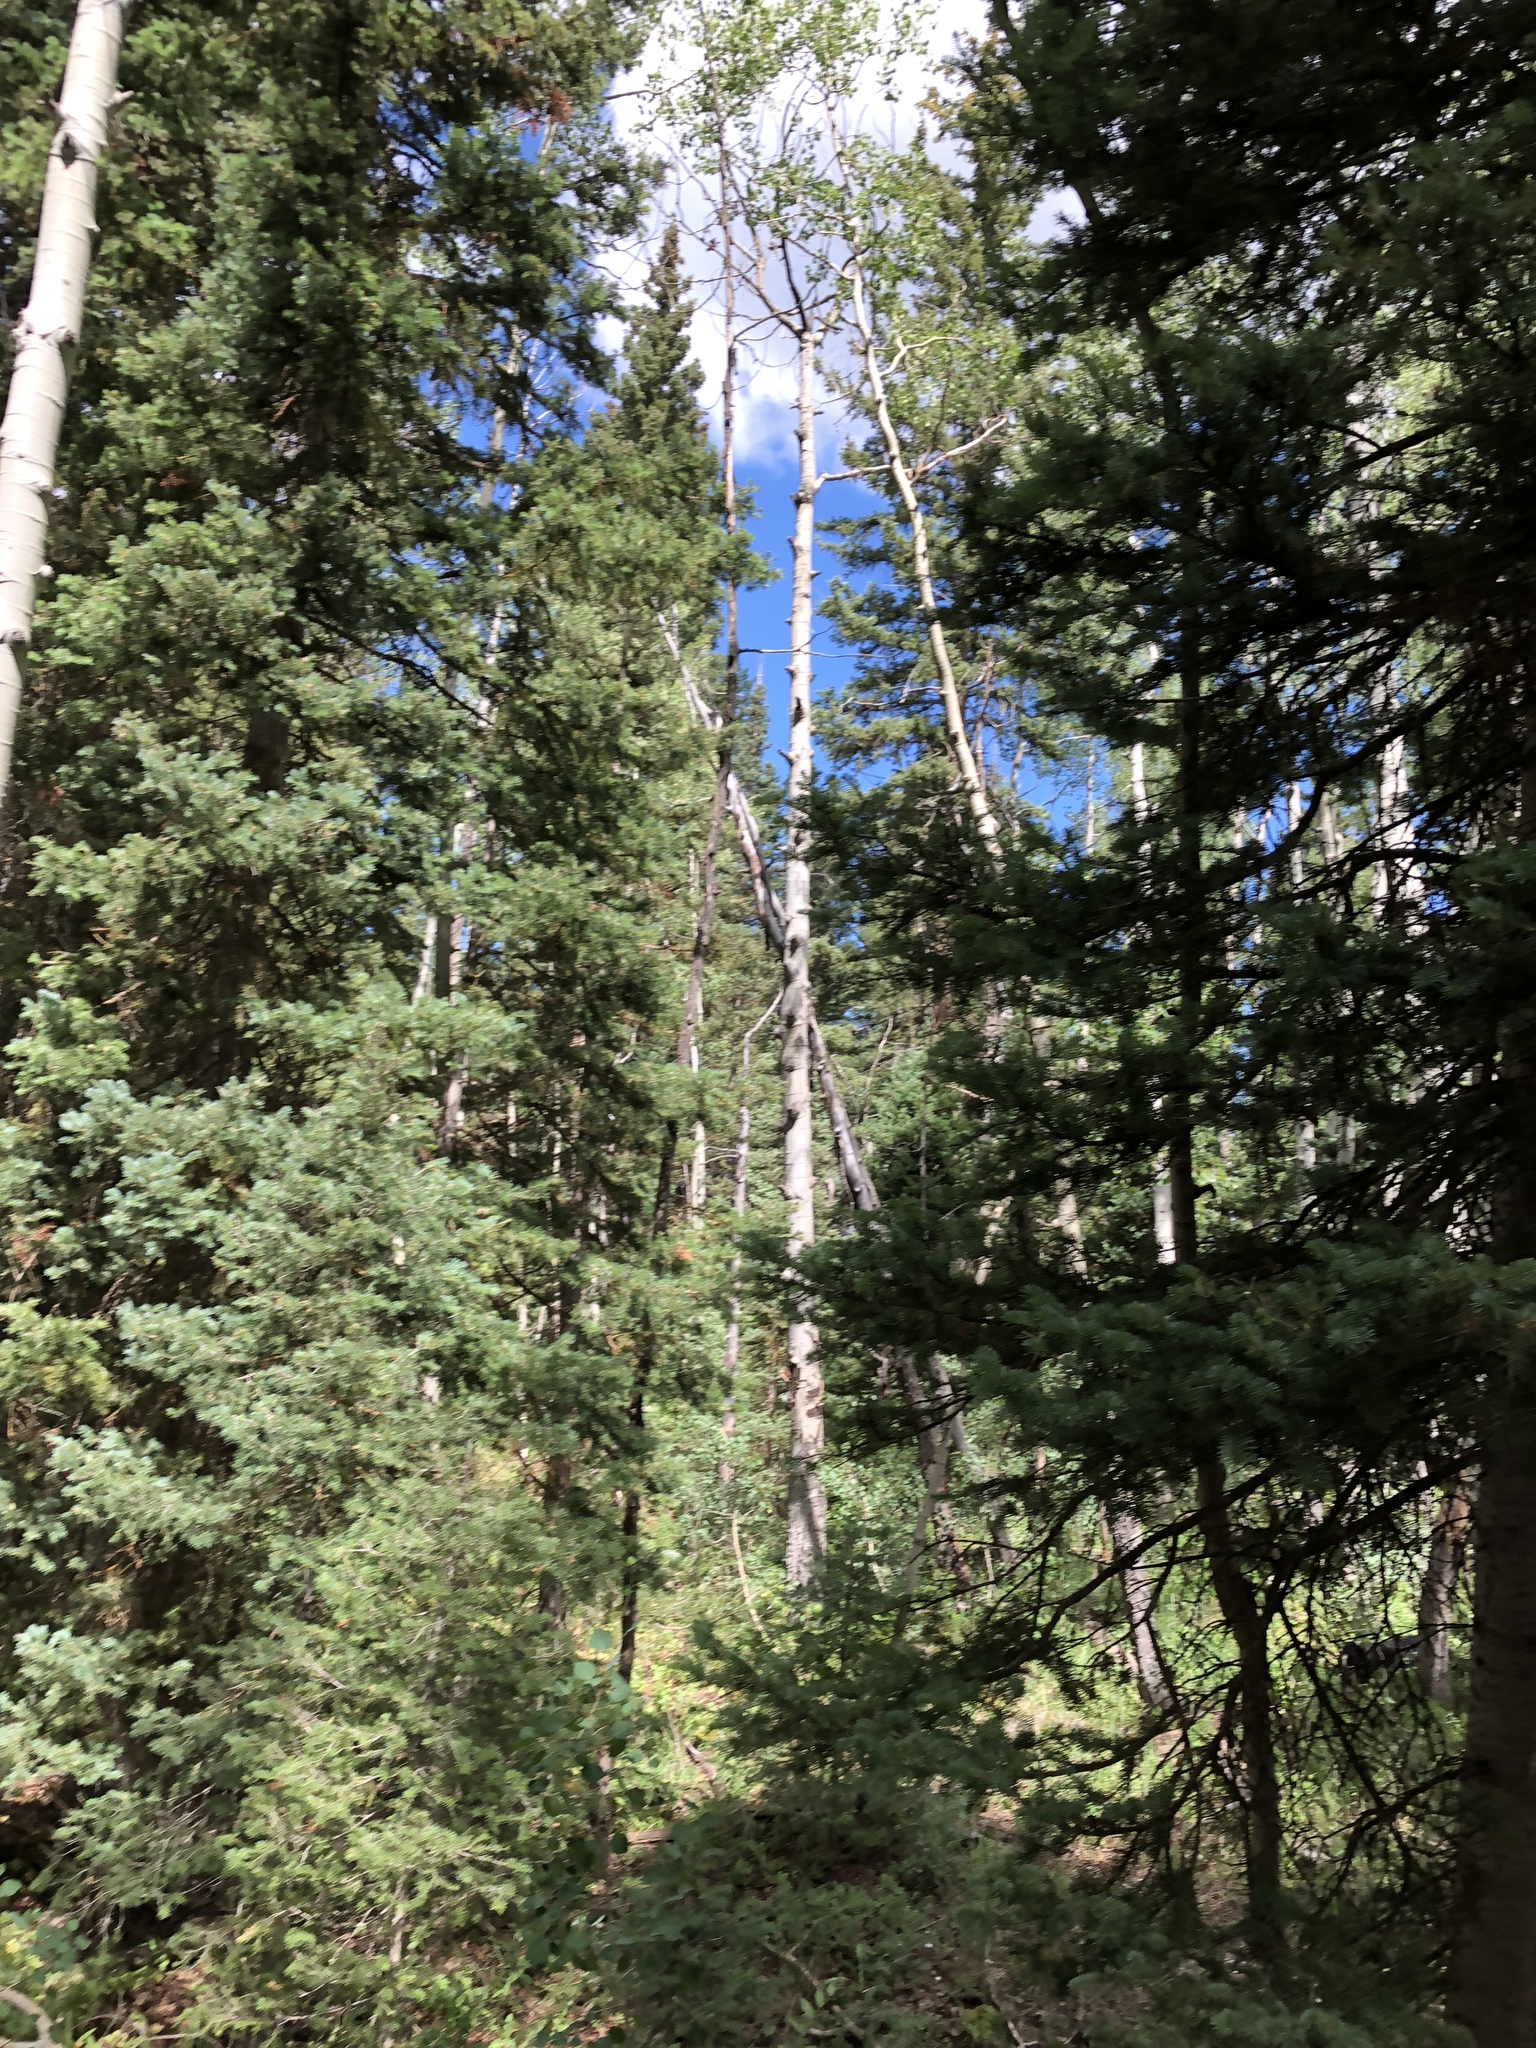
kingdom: Plantae
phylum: Tracheophyta
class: Magnoliopsida
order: Malpighiales
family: Salicaceae
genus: Populus
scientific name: Populus tremuloides
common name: Quaking aspen
